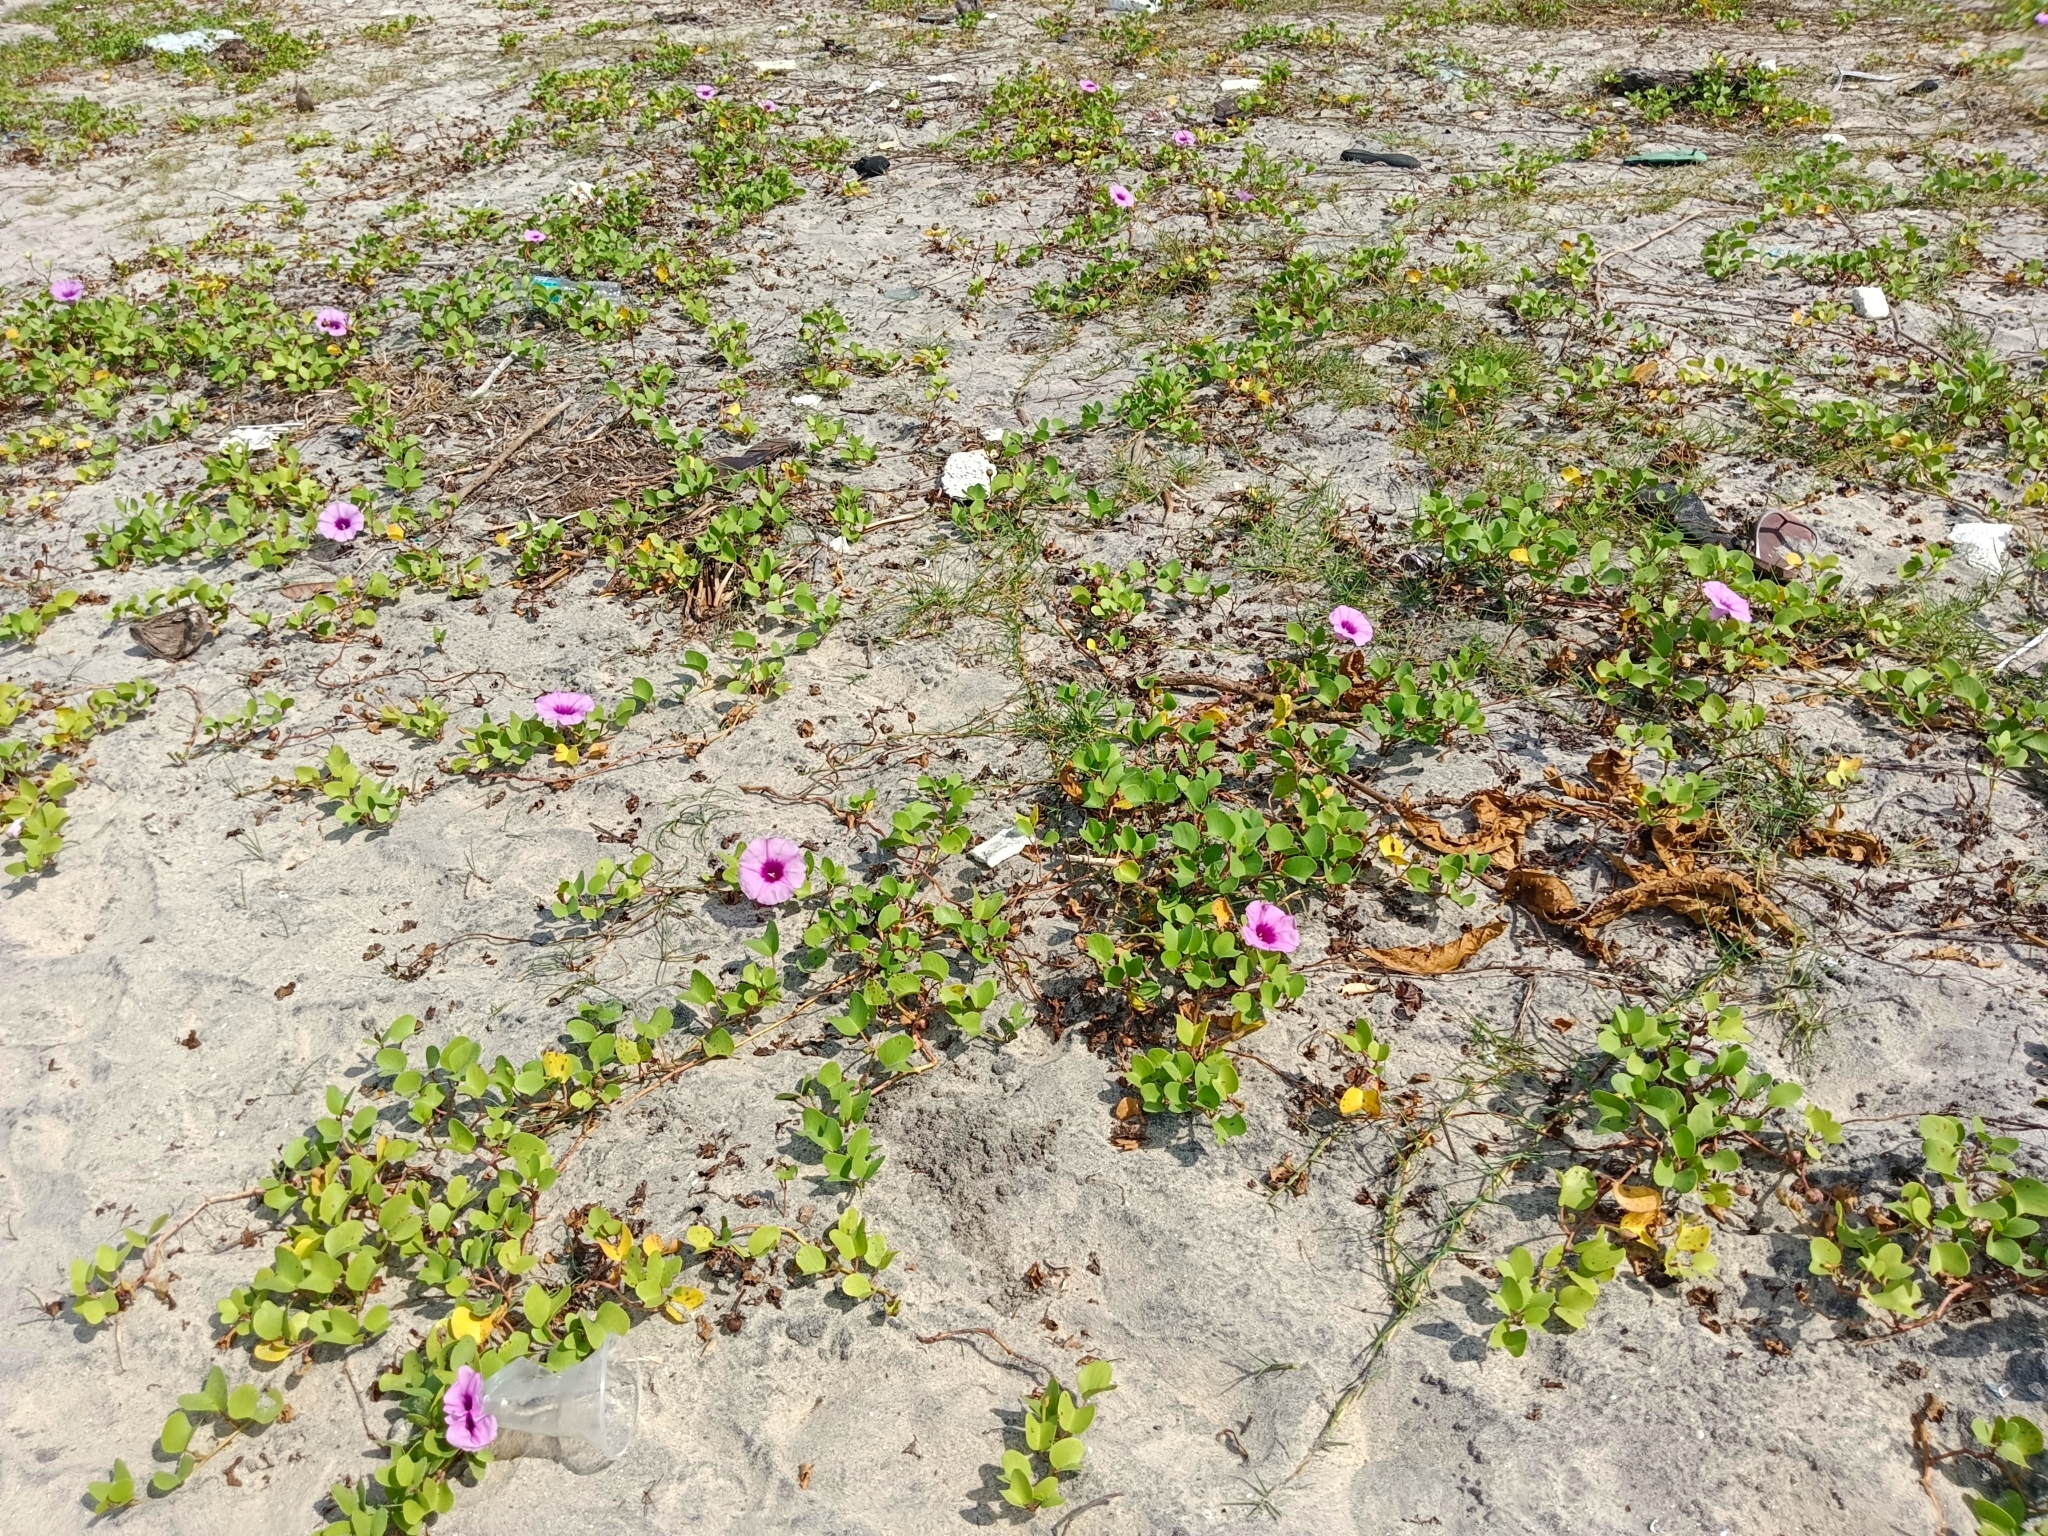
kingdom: Plantae
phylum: Tracheophyta
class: Magnoliopsida
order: Solanales
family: Convolvulaceae
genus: Ipomoea
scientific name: Ipomoea pes-caprae
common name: Beach morning glory
